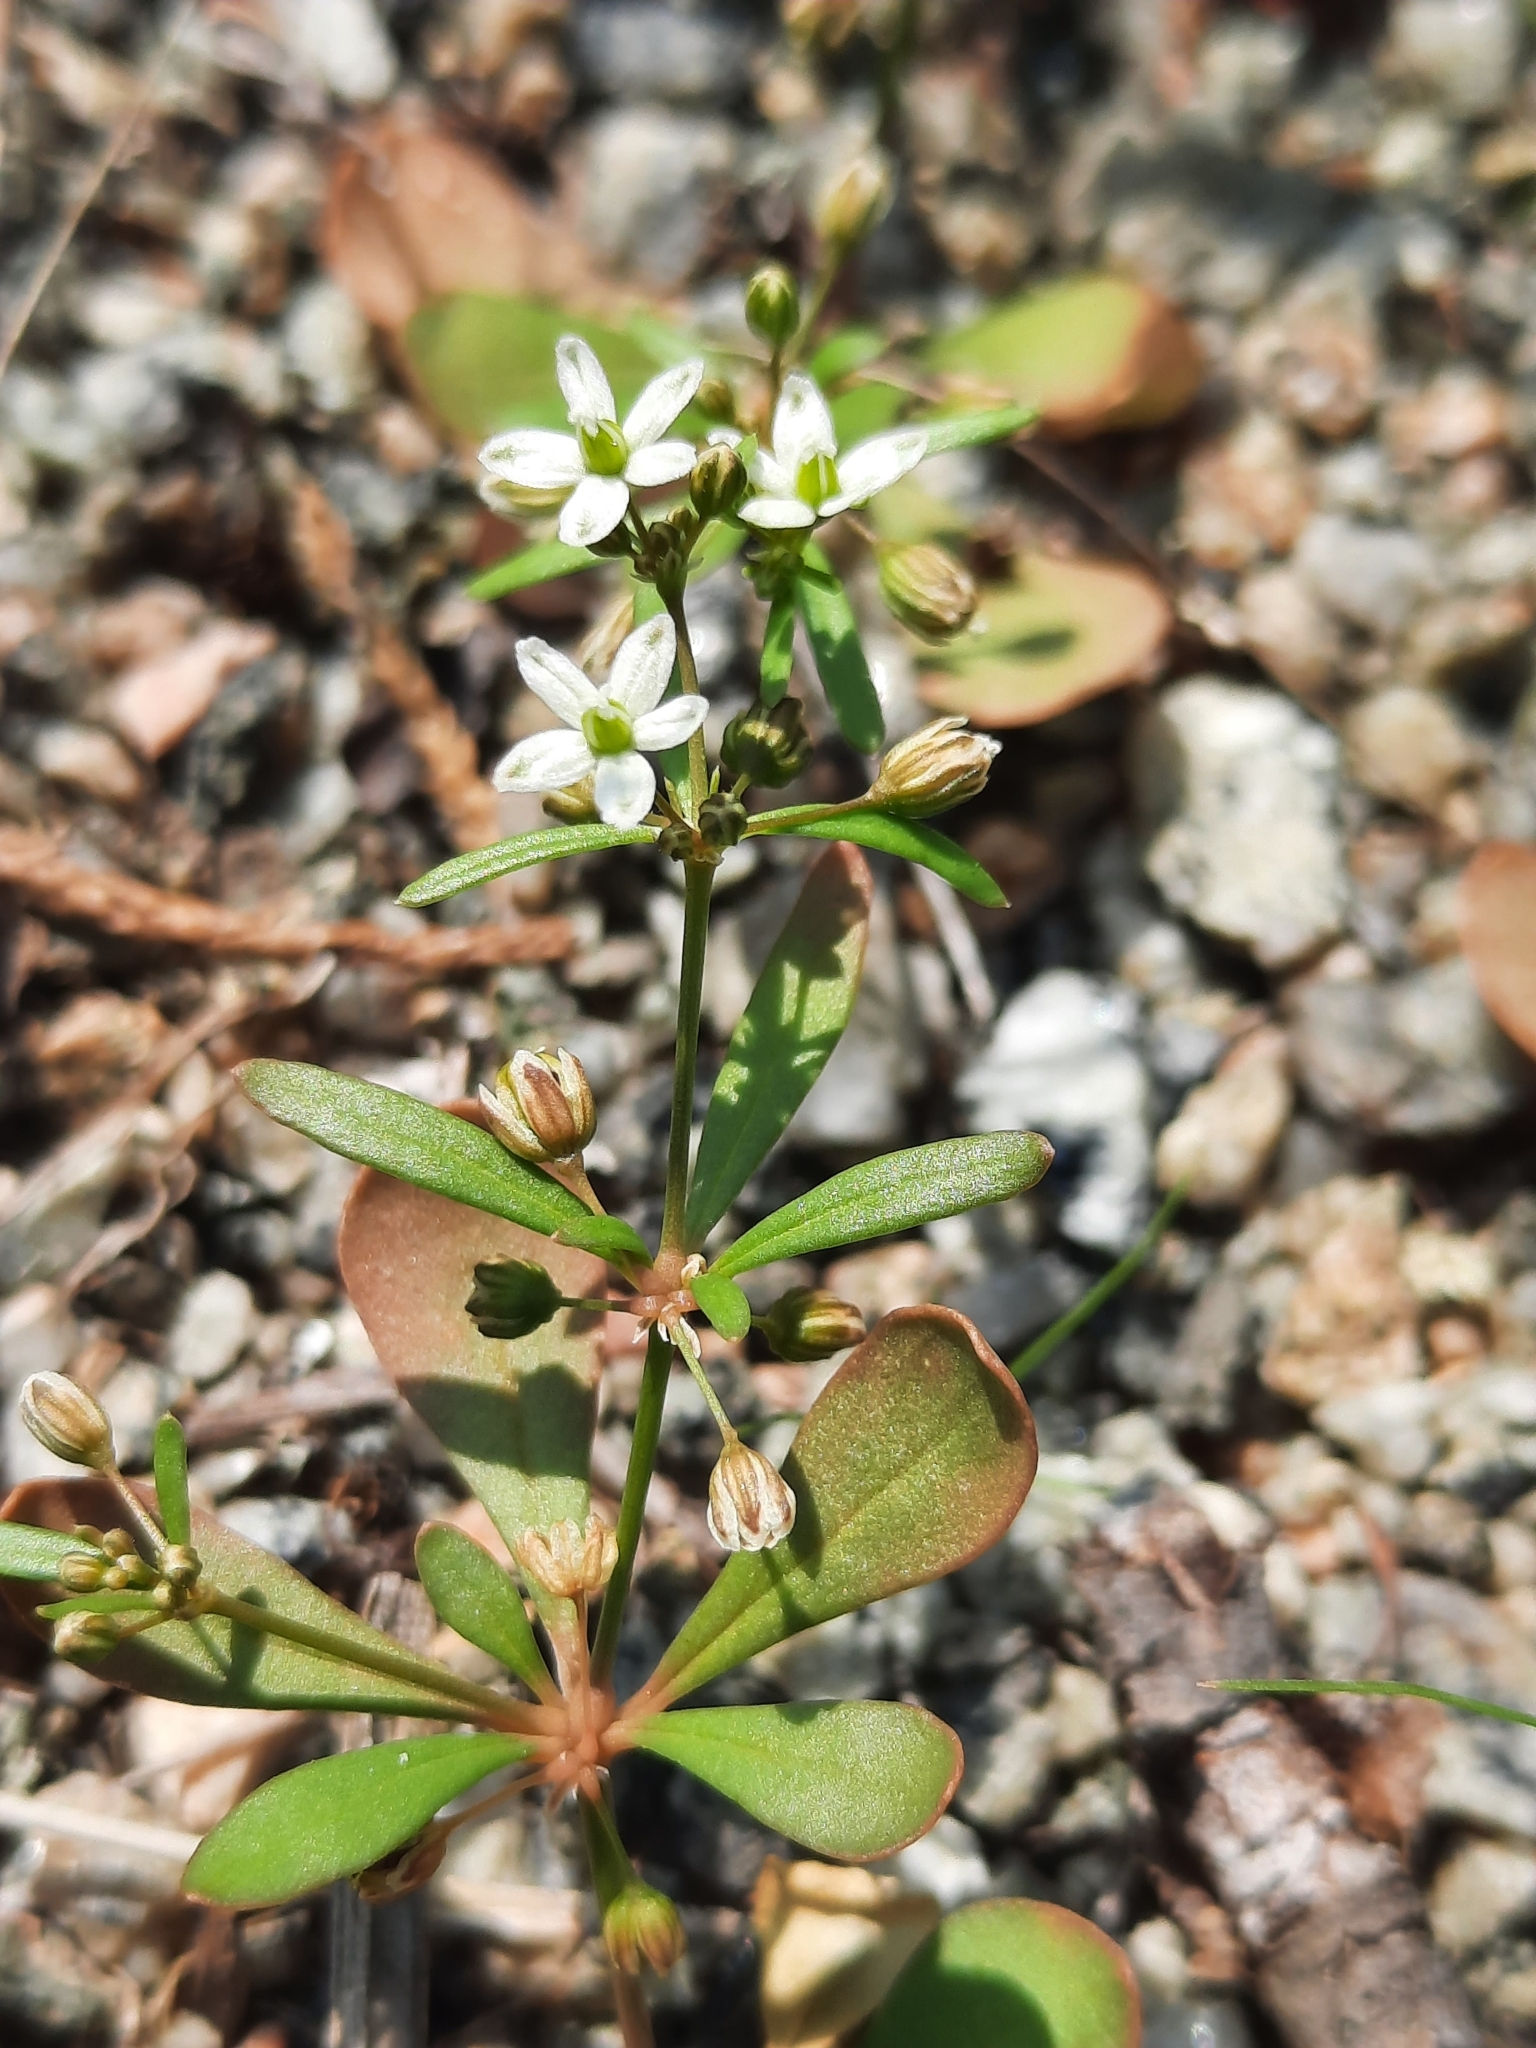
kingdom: Plantae
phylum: Tracheophyta
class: Magnoliopsida
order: Caryophyllales
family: Molluginaceae
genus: Mollugo
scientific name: Mollugo verticillata
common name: Green carpetweed
